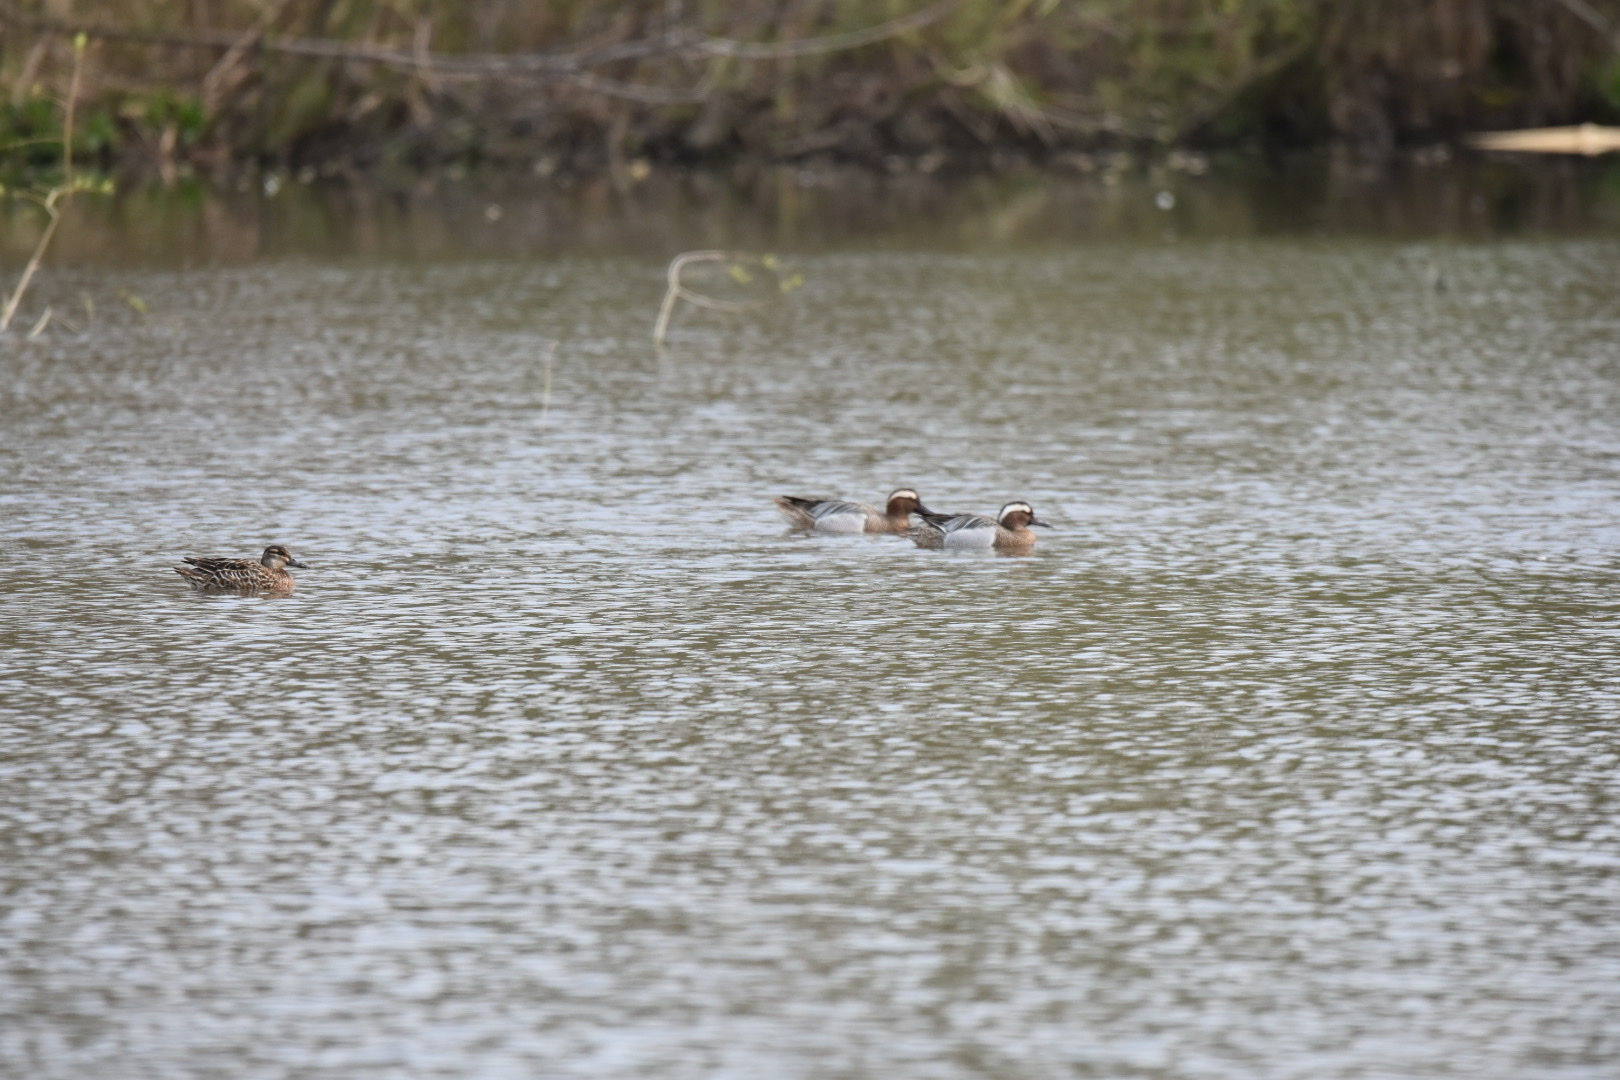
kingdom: Animalia
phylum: Chordata
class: Aves
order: Anseriformes
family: Anatidae
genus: Spatula
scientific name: Spatula querquedula
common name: Garganey
